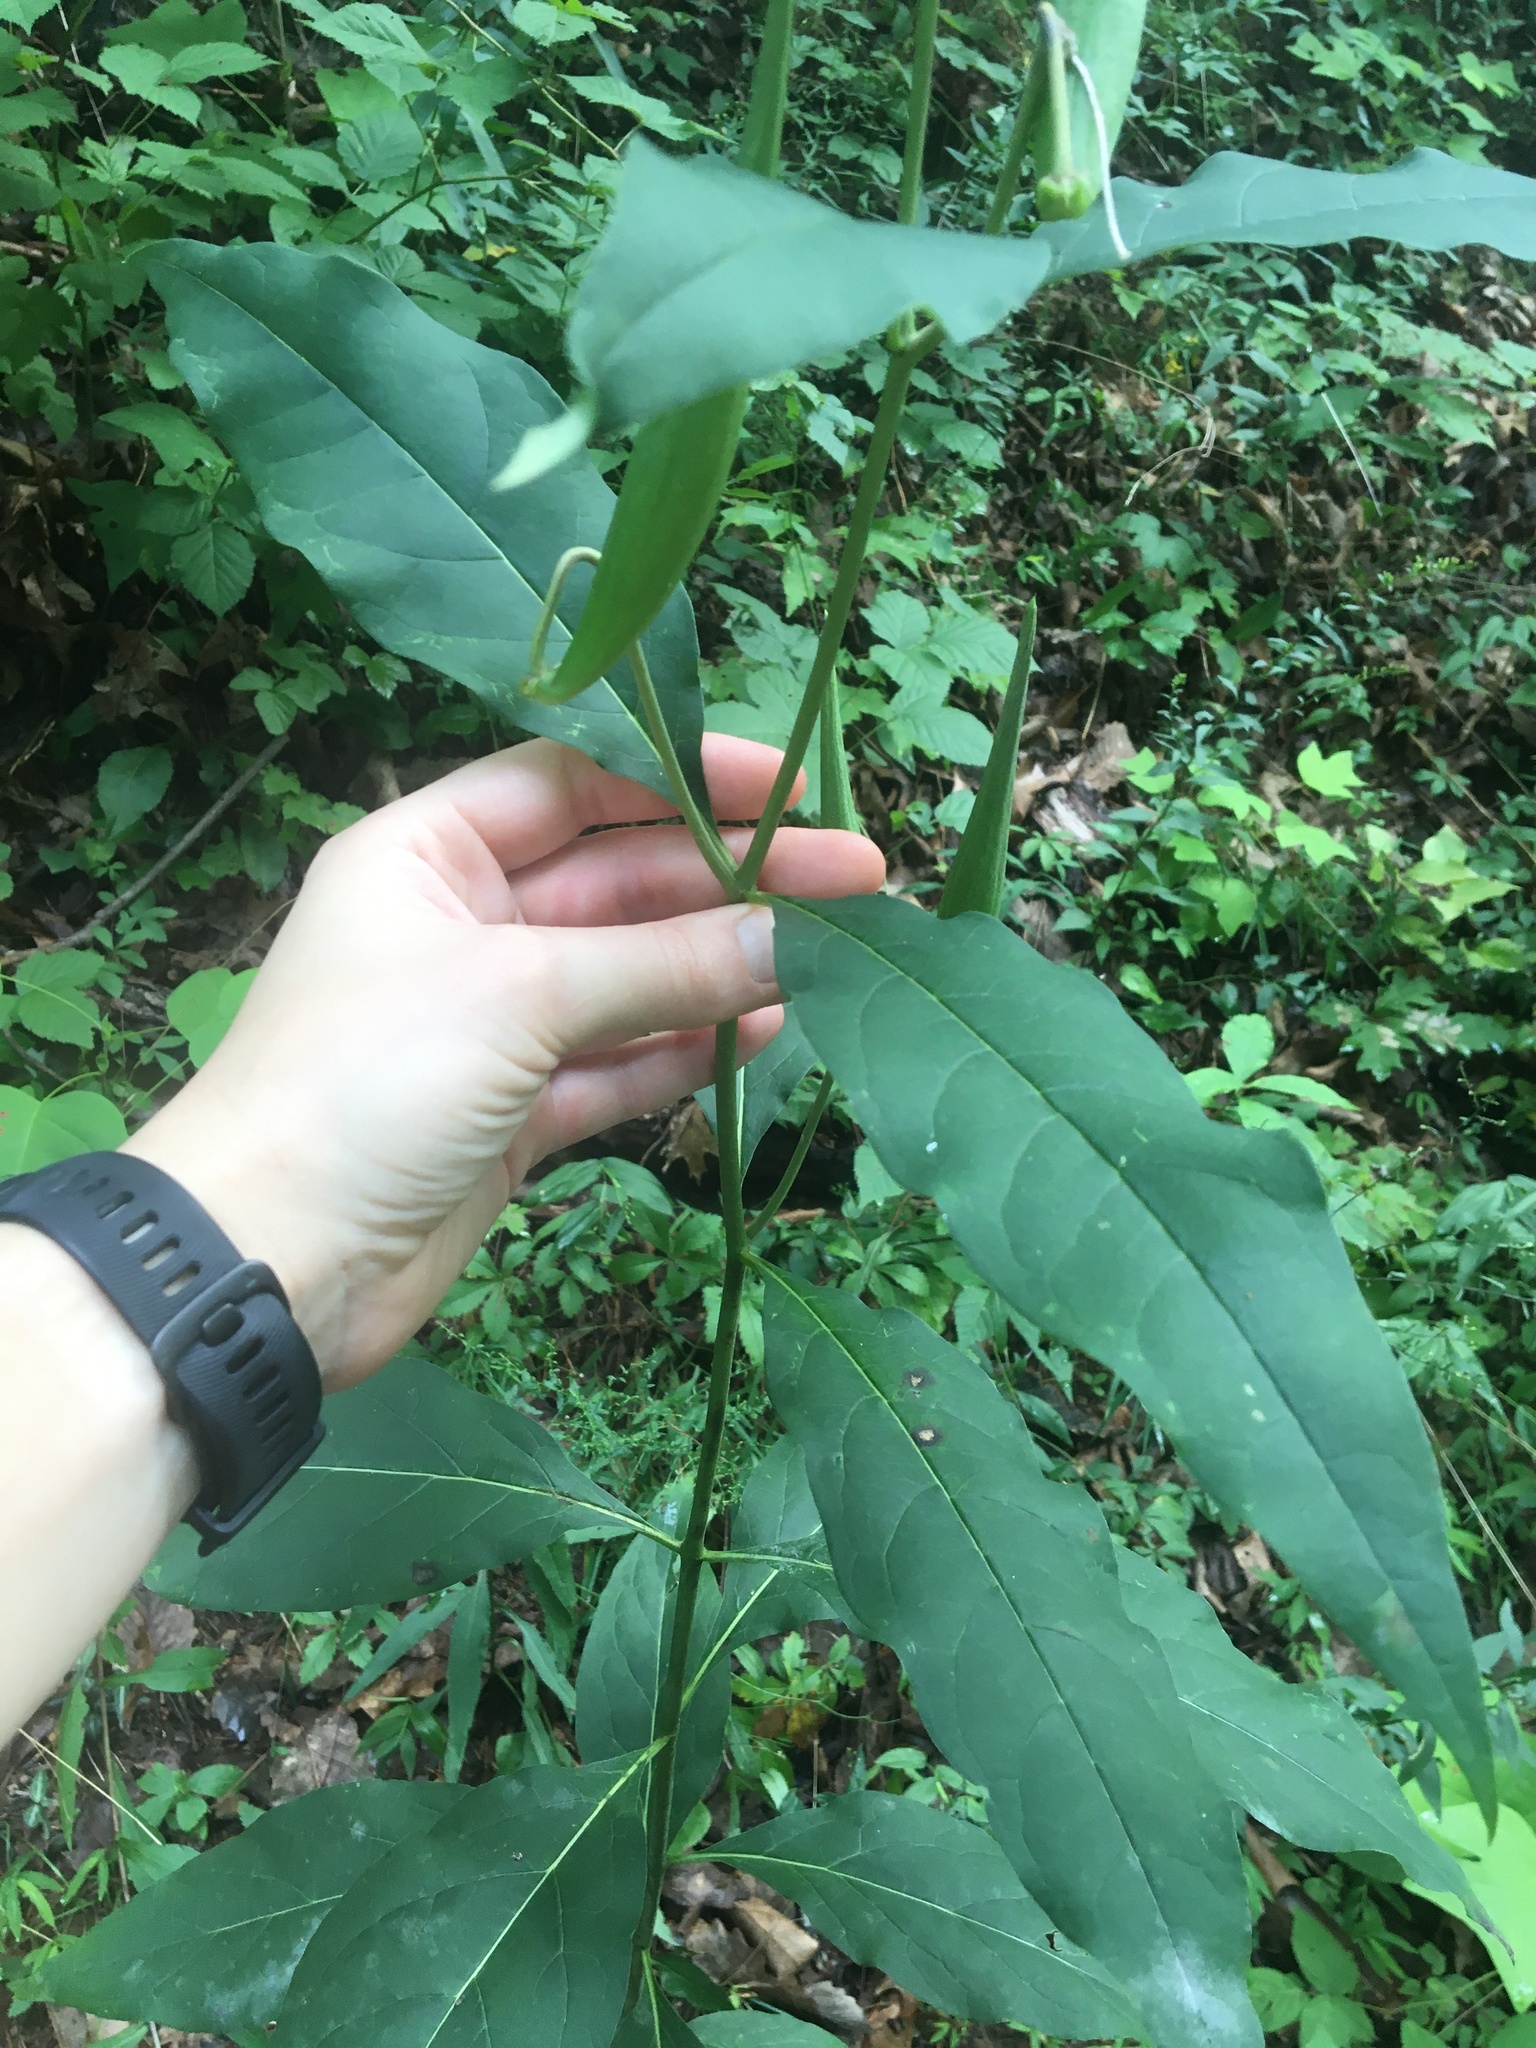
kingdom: Plantae
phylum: Tracheophyta
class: Magnoliopsida
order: Gentianales
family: Apocynaceae
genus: Asclepias
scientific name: Asclepias exaltata
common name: Poke milkweed
